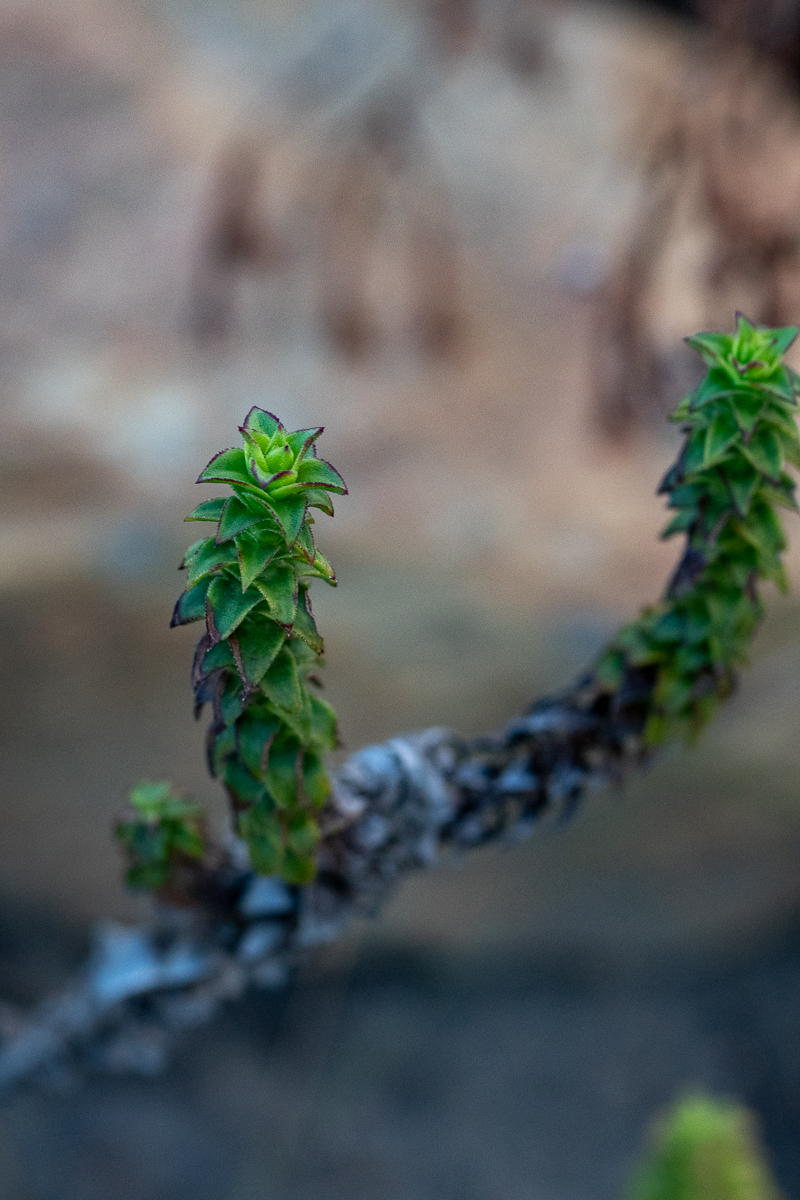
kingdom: Plantae
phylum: Tracheophyta
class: Magnoliopsida
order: Asterales
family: Asteraceae
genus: Oedera
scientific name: Oedera imbricata
